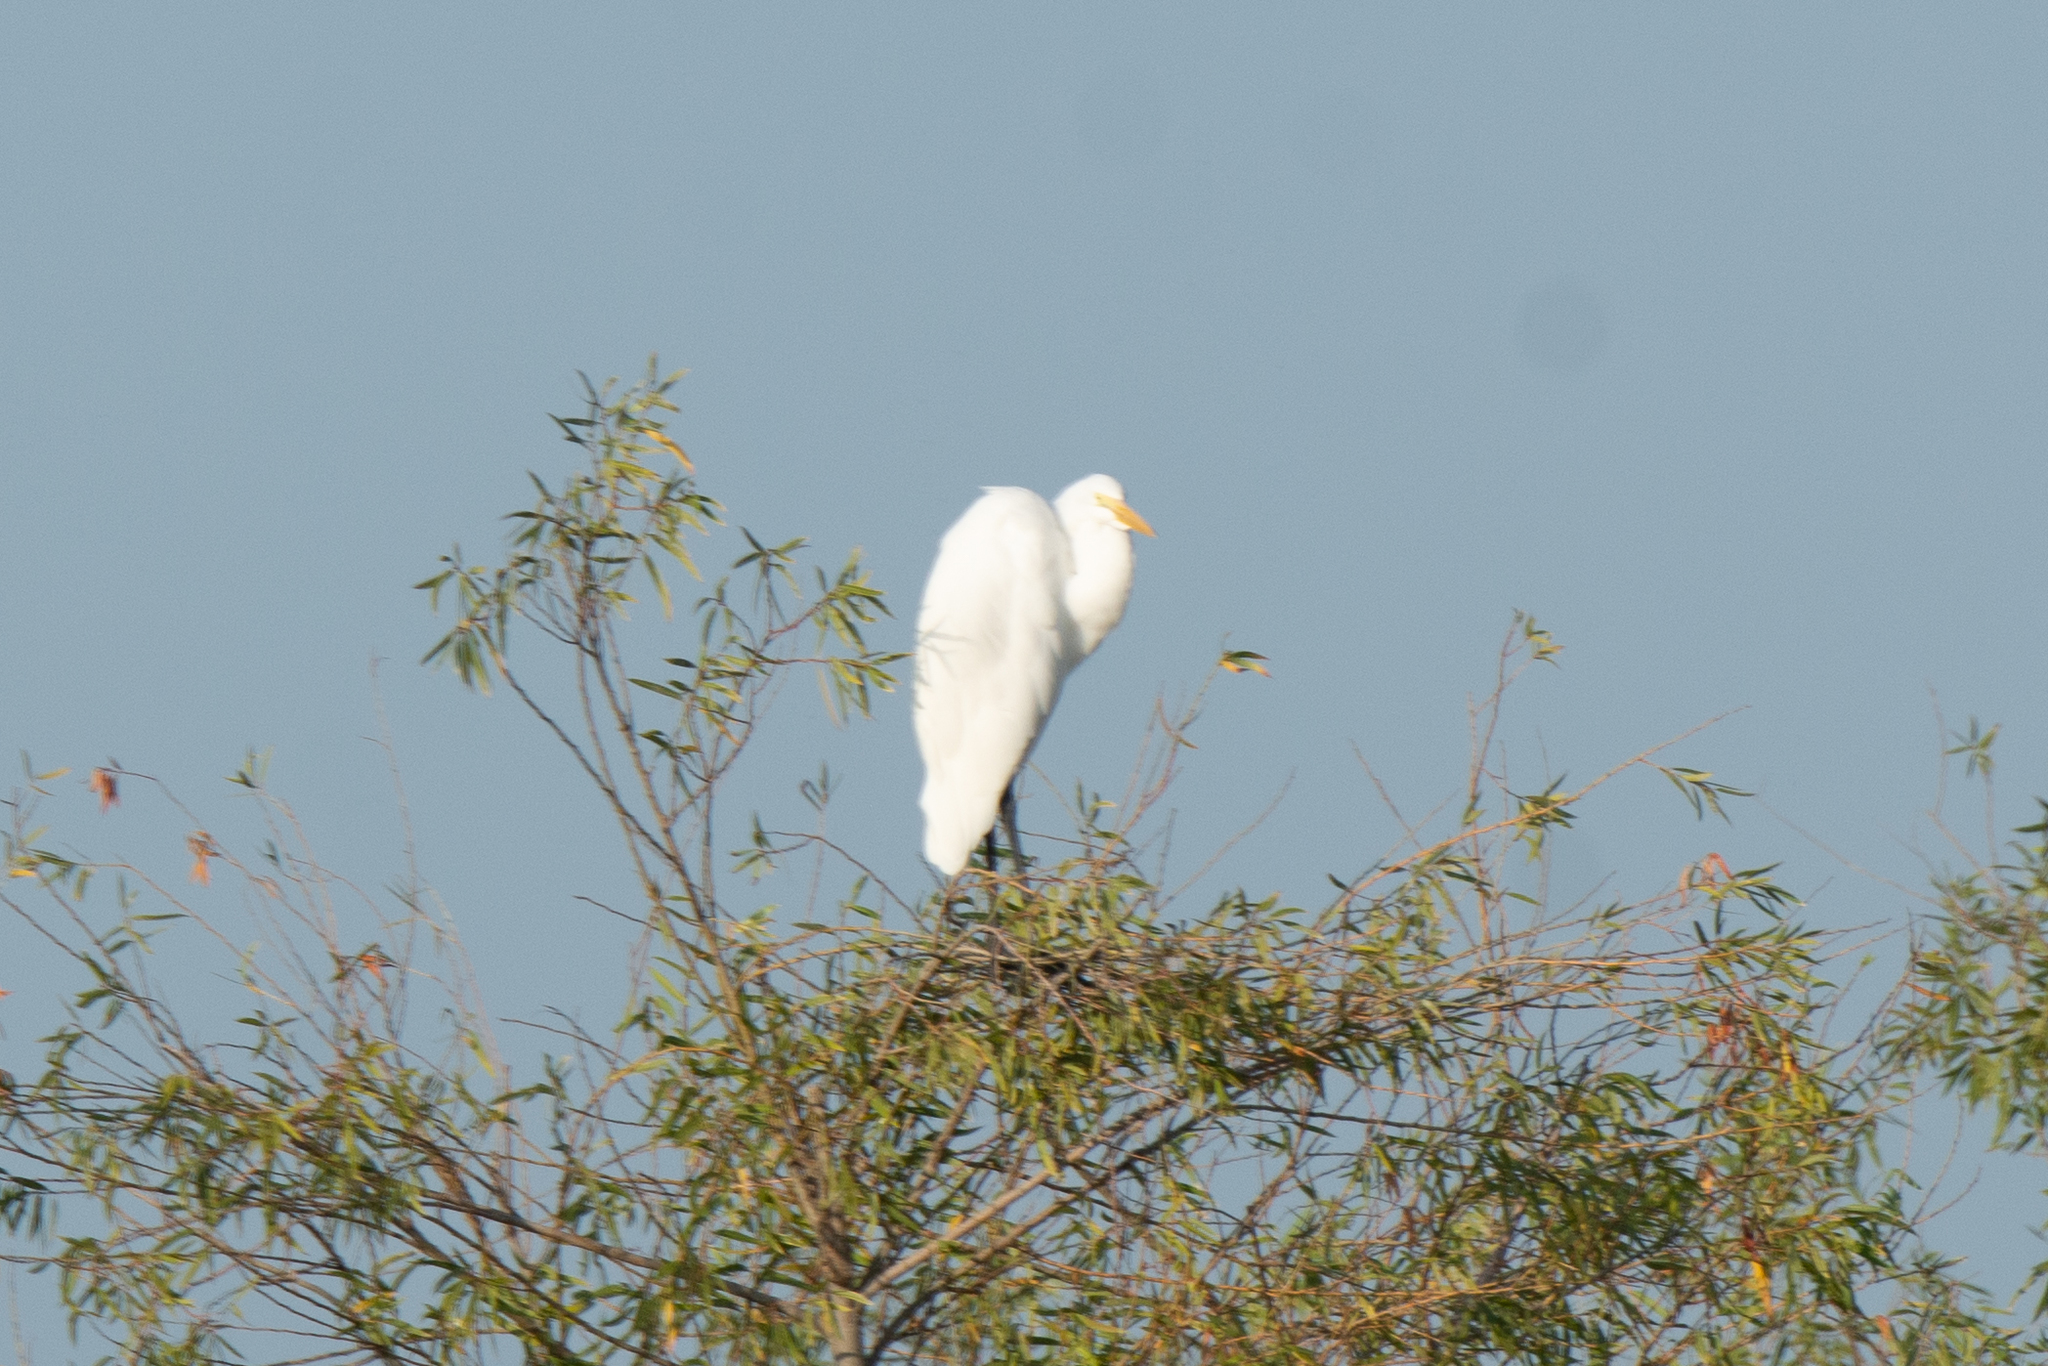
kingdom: Animalia
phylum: Chordata
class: Aves
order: Pelecaniformes
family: Ardeidae
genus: Ardea
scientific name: Ardea alba
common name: Great egret
